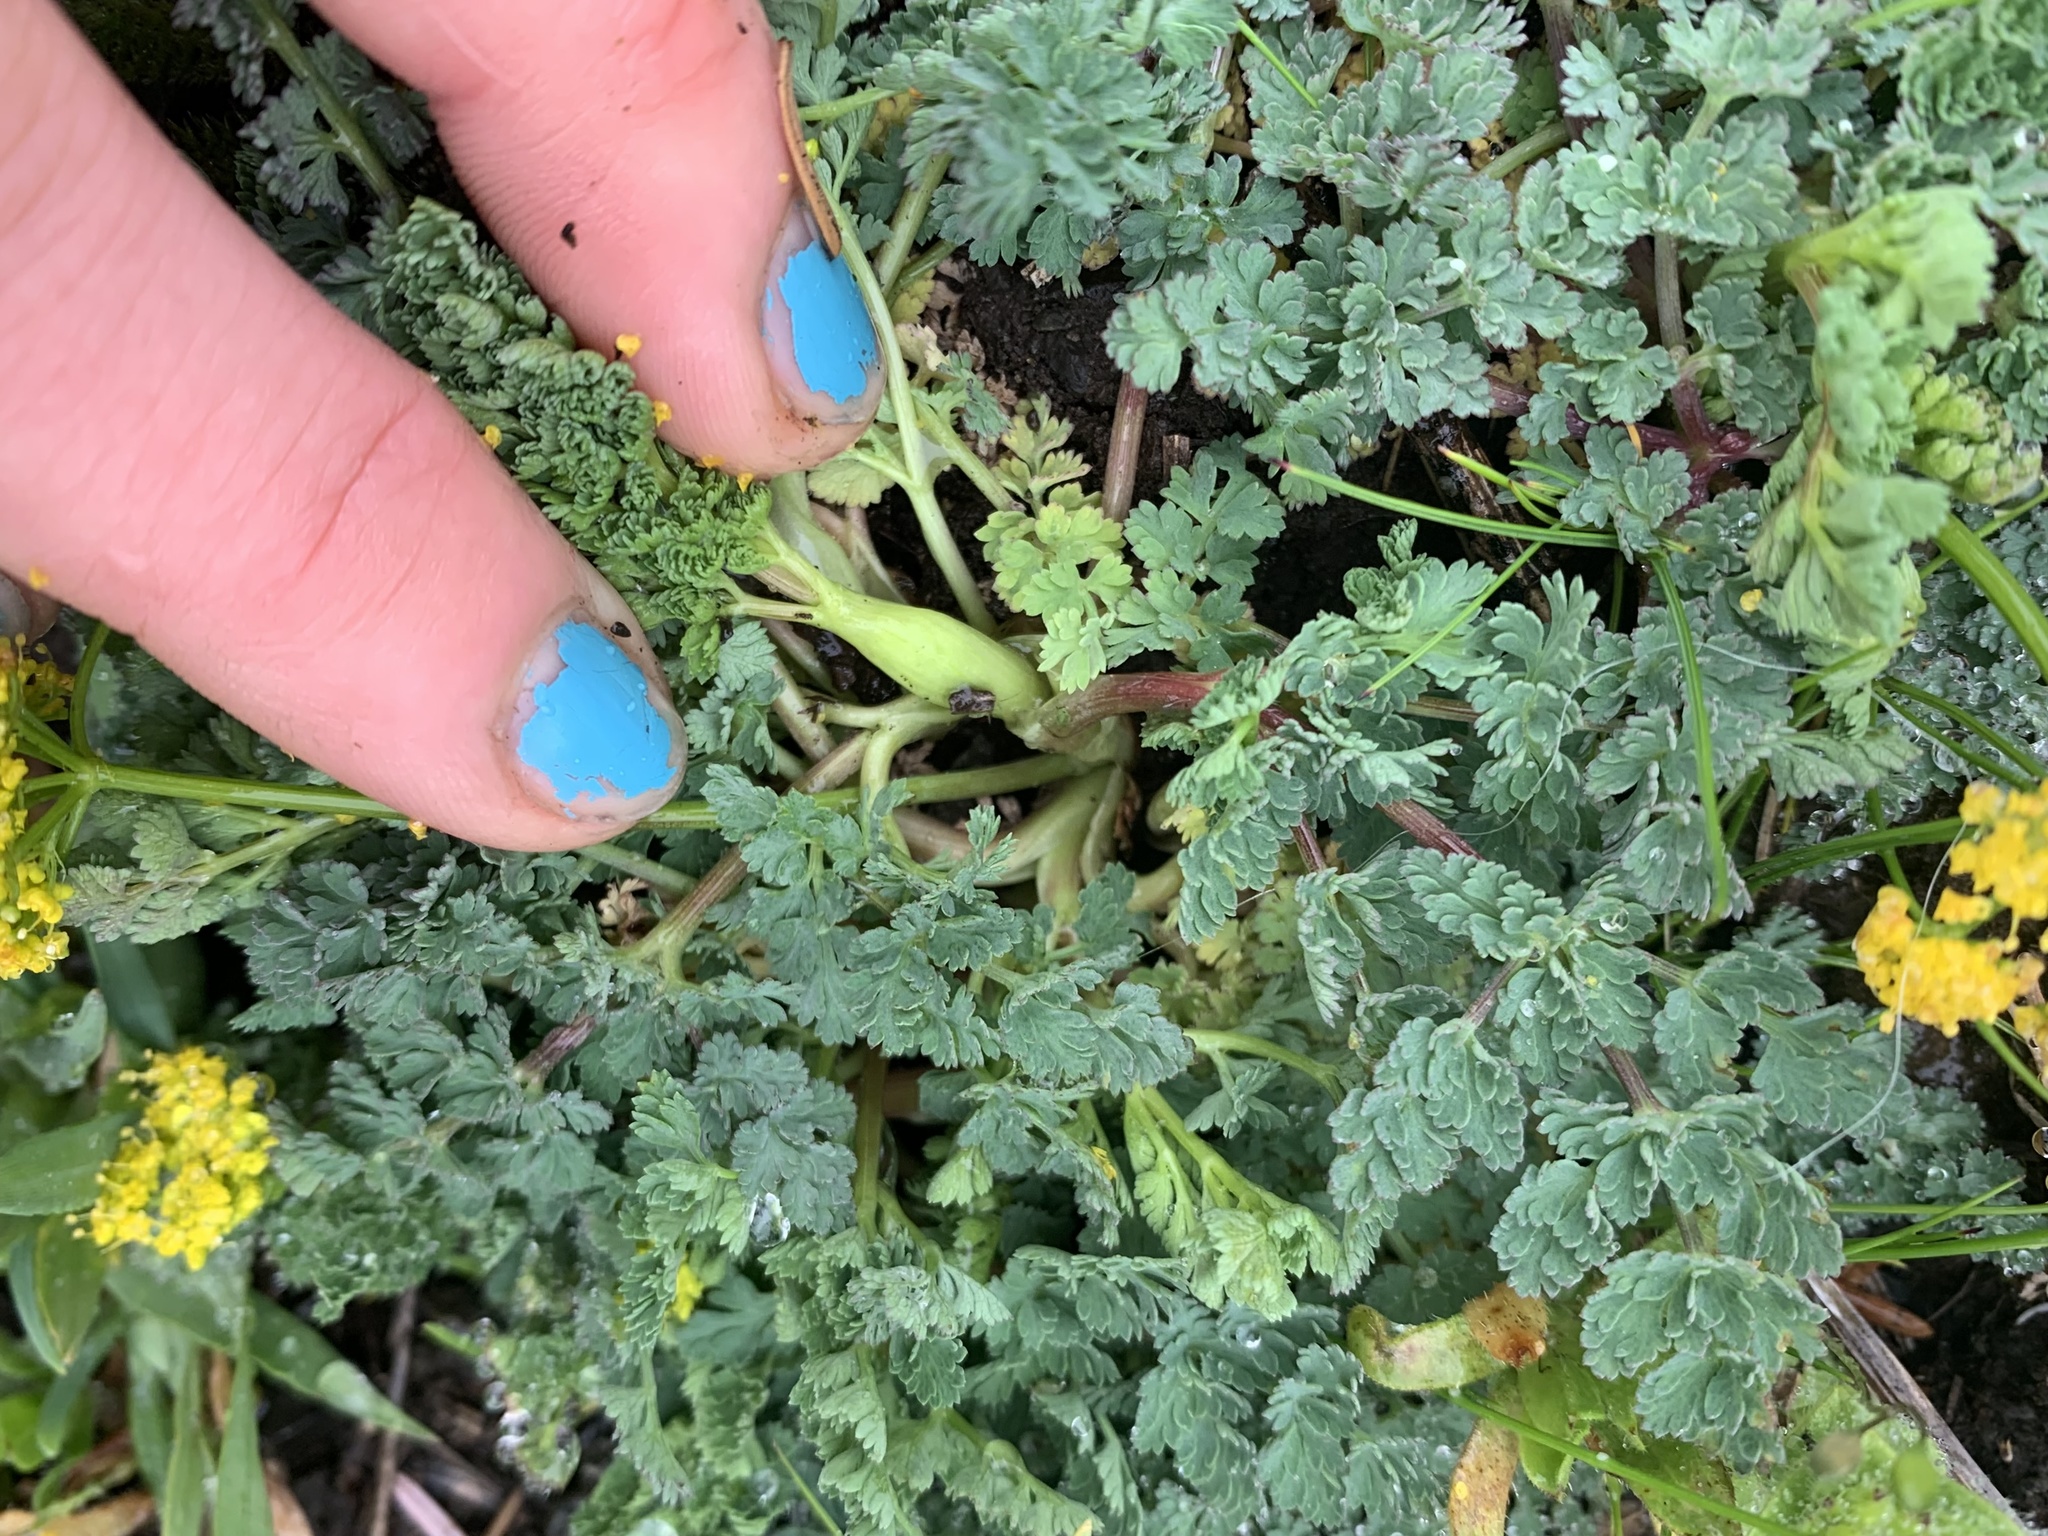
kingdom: Plantae
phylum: Tracheophyta
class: Magnoliopsida
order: Apiales
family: Apiaceae
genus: Lomatium
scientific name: Lomatium martindalei
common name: Cascade desert-parsley
